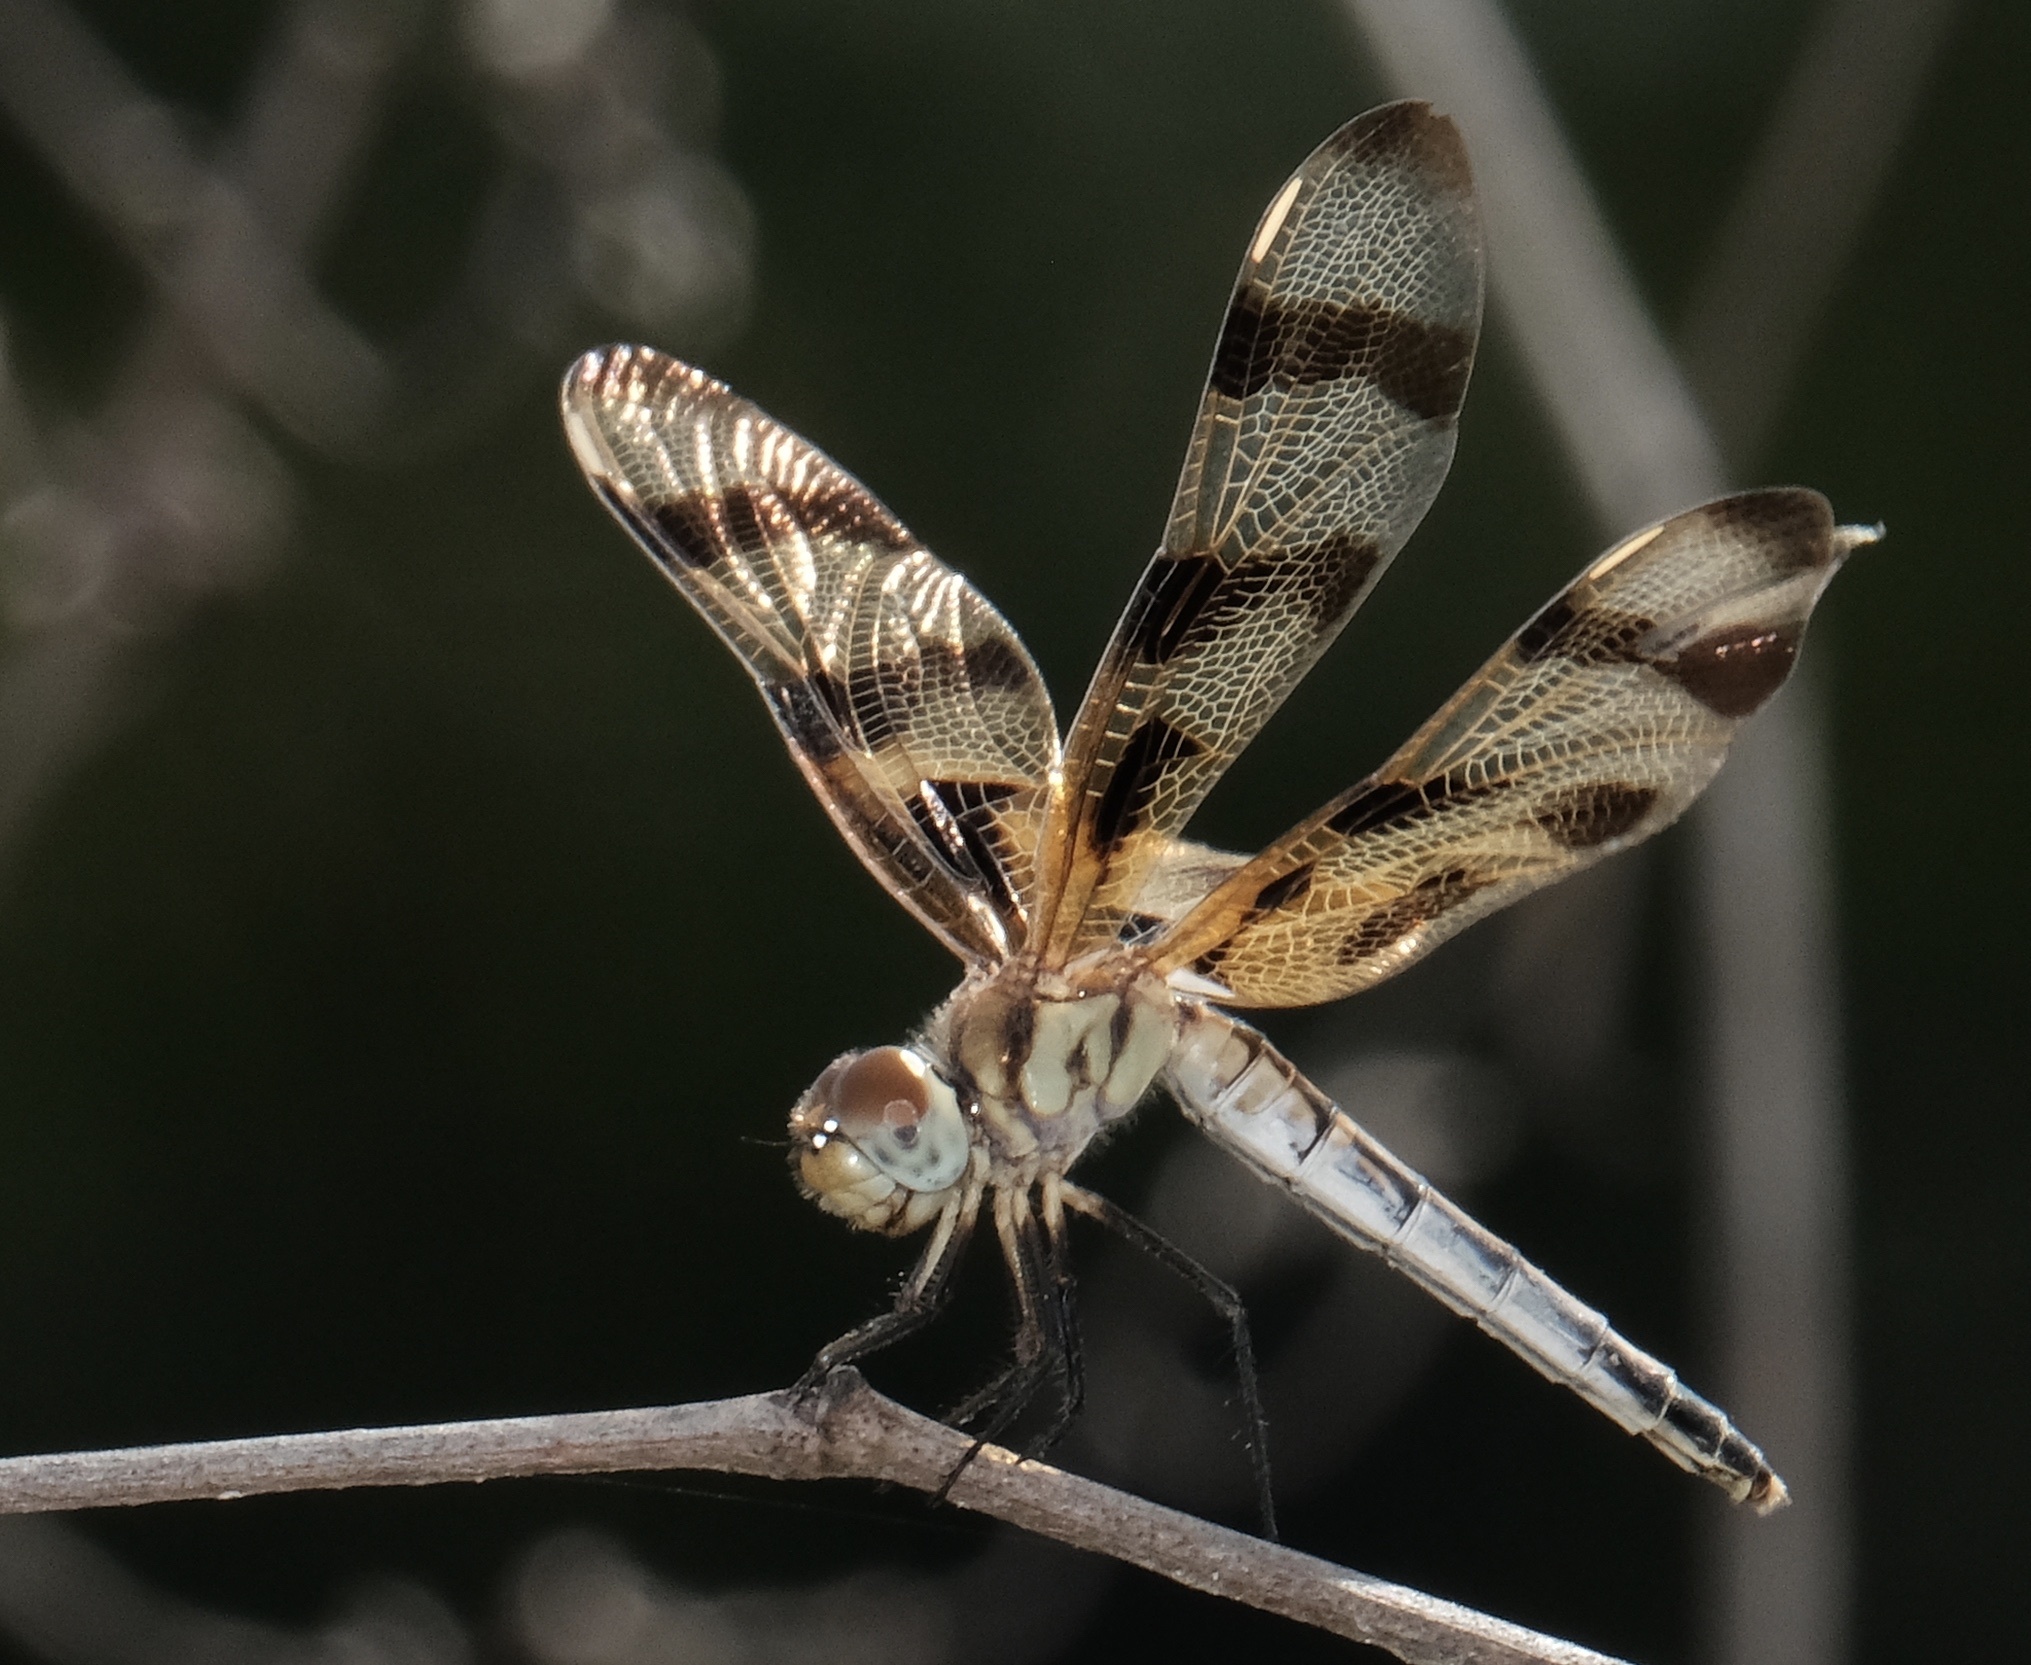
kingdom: Animalia
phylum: Arthropoda
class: Insecta
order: Odonata
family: Libellulidae
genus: Celithemis
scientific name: Celithemis eponina
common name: Halloween pennant
